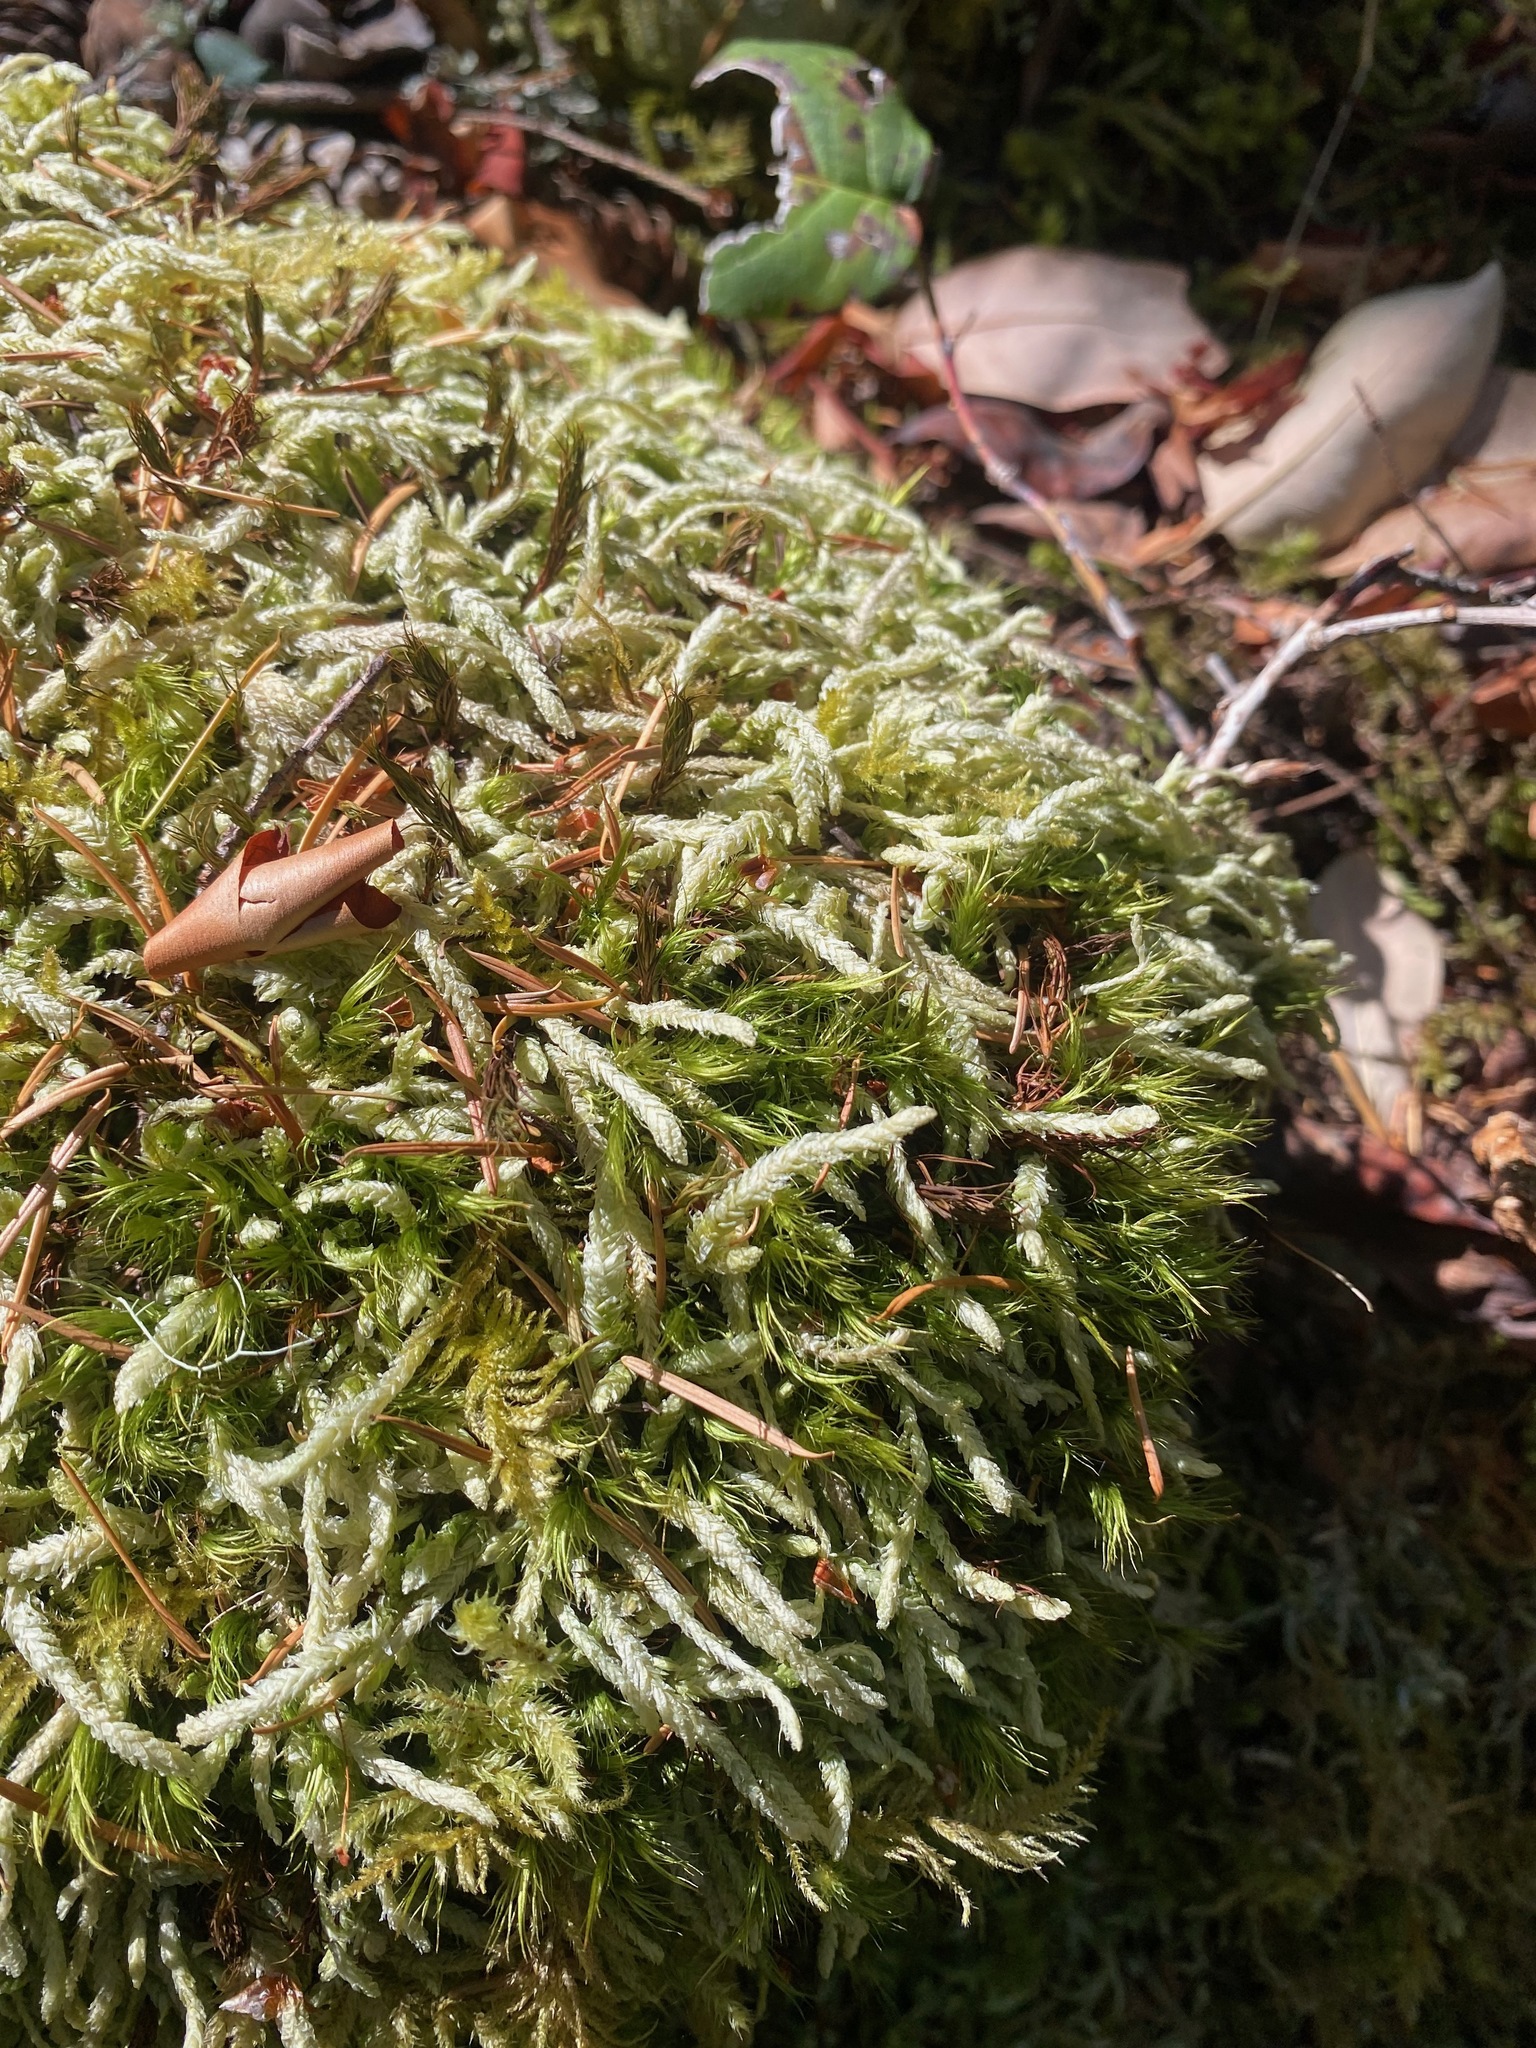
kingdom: Plantae
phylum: Bryophyta
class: Bryopsida
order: Hypnales
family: Plagiotheciaceae
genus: Plagiothecium
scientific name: Plagiothecium undulatum
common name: Waved silk-moss
